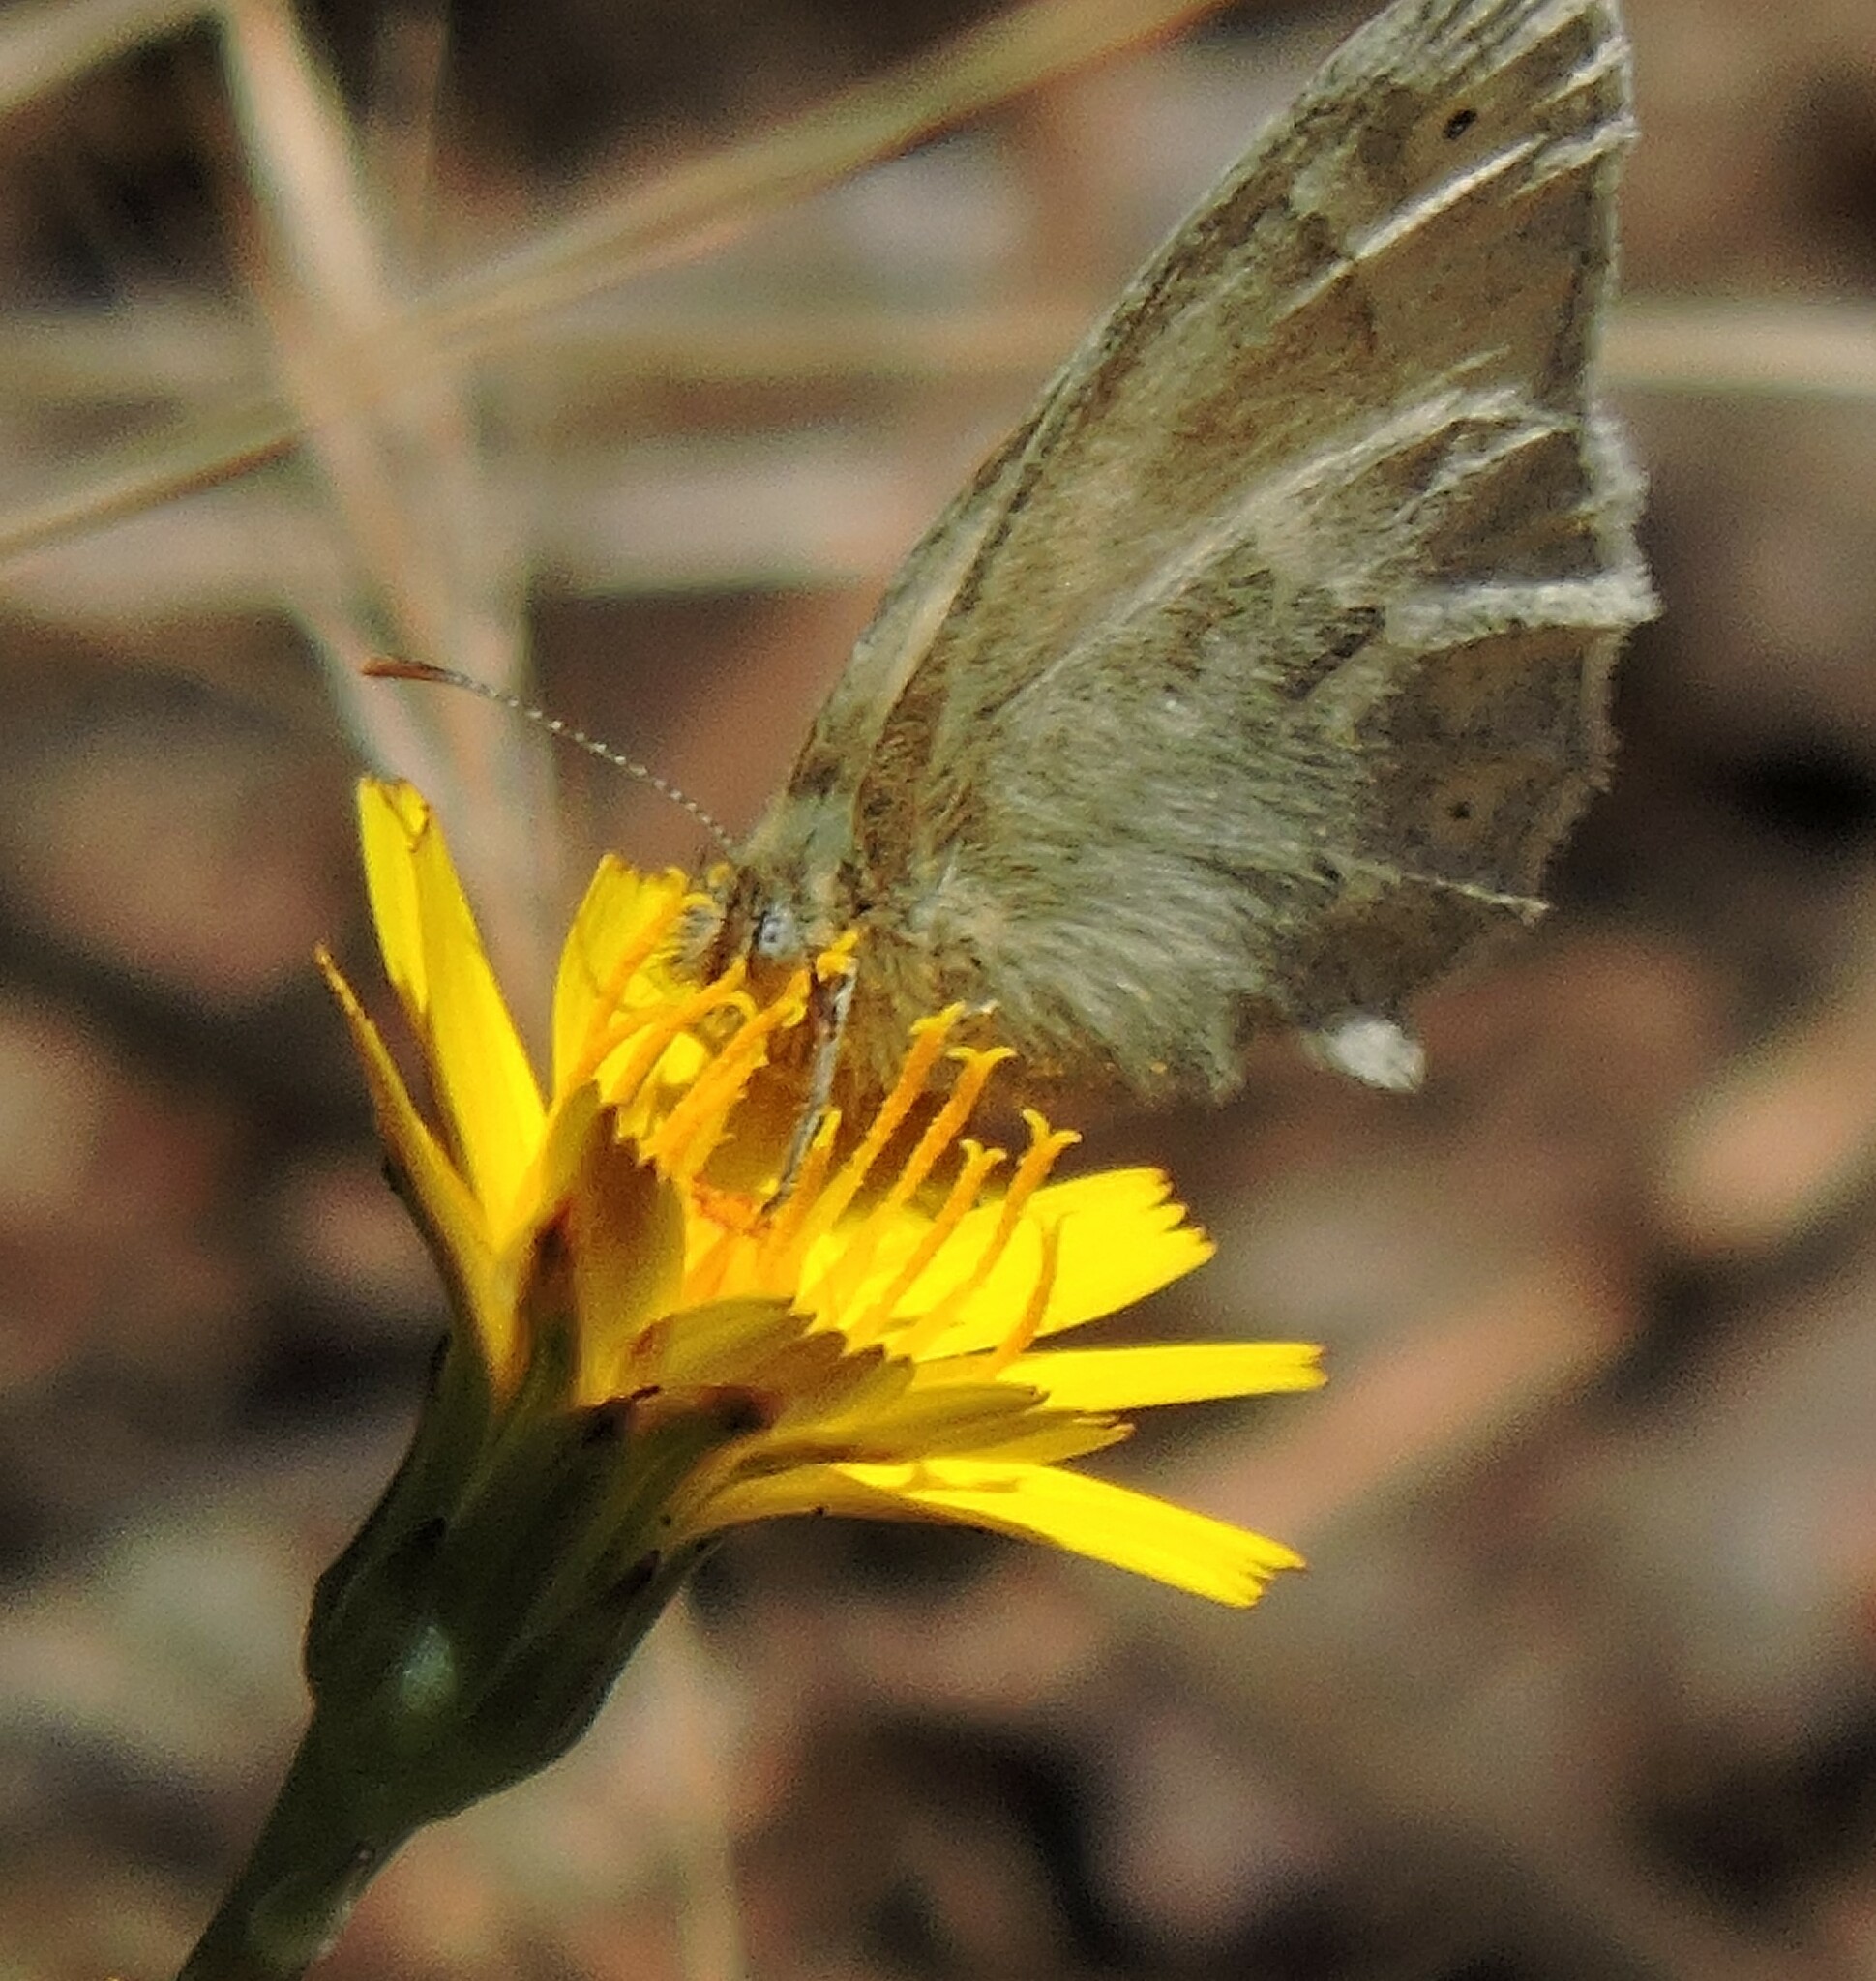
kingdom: Animalia
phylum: Arthropoda
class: Insecta
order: Lepidoptera
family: Nymphalidae
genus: Coenonympha
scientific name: Coenonympha california
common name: Common ringlet
